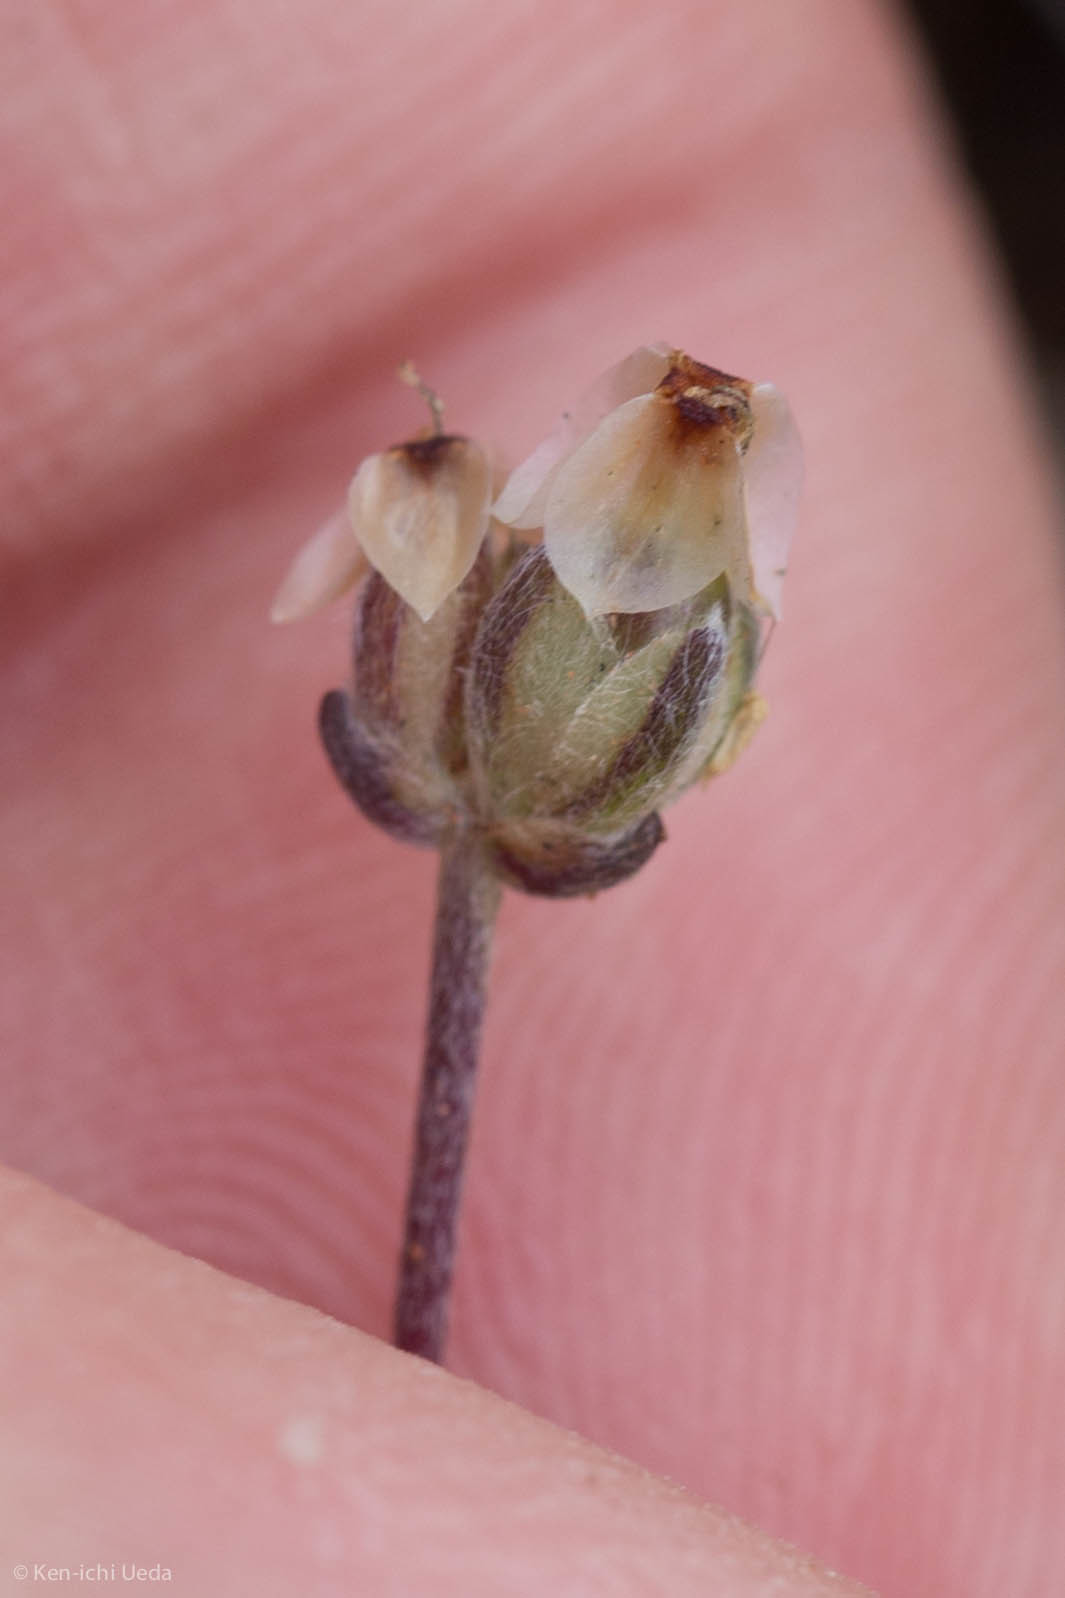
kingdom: Plantae
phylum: Tracheophyta
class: Magnoliopsida
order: Lamiales
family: Plantaginaceae
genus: Plantago
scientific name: Plantago erecta
